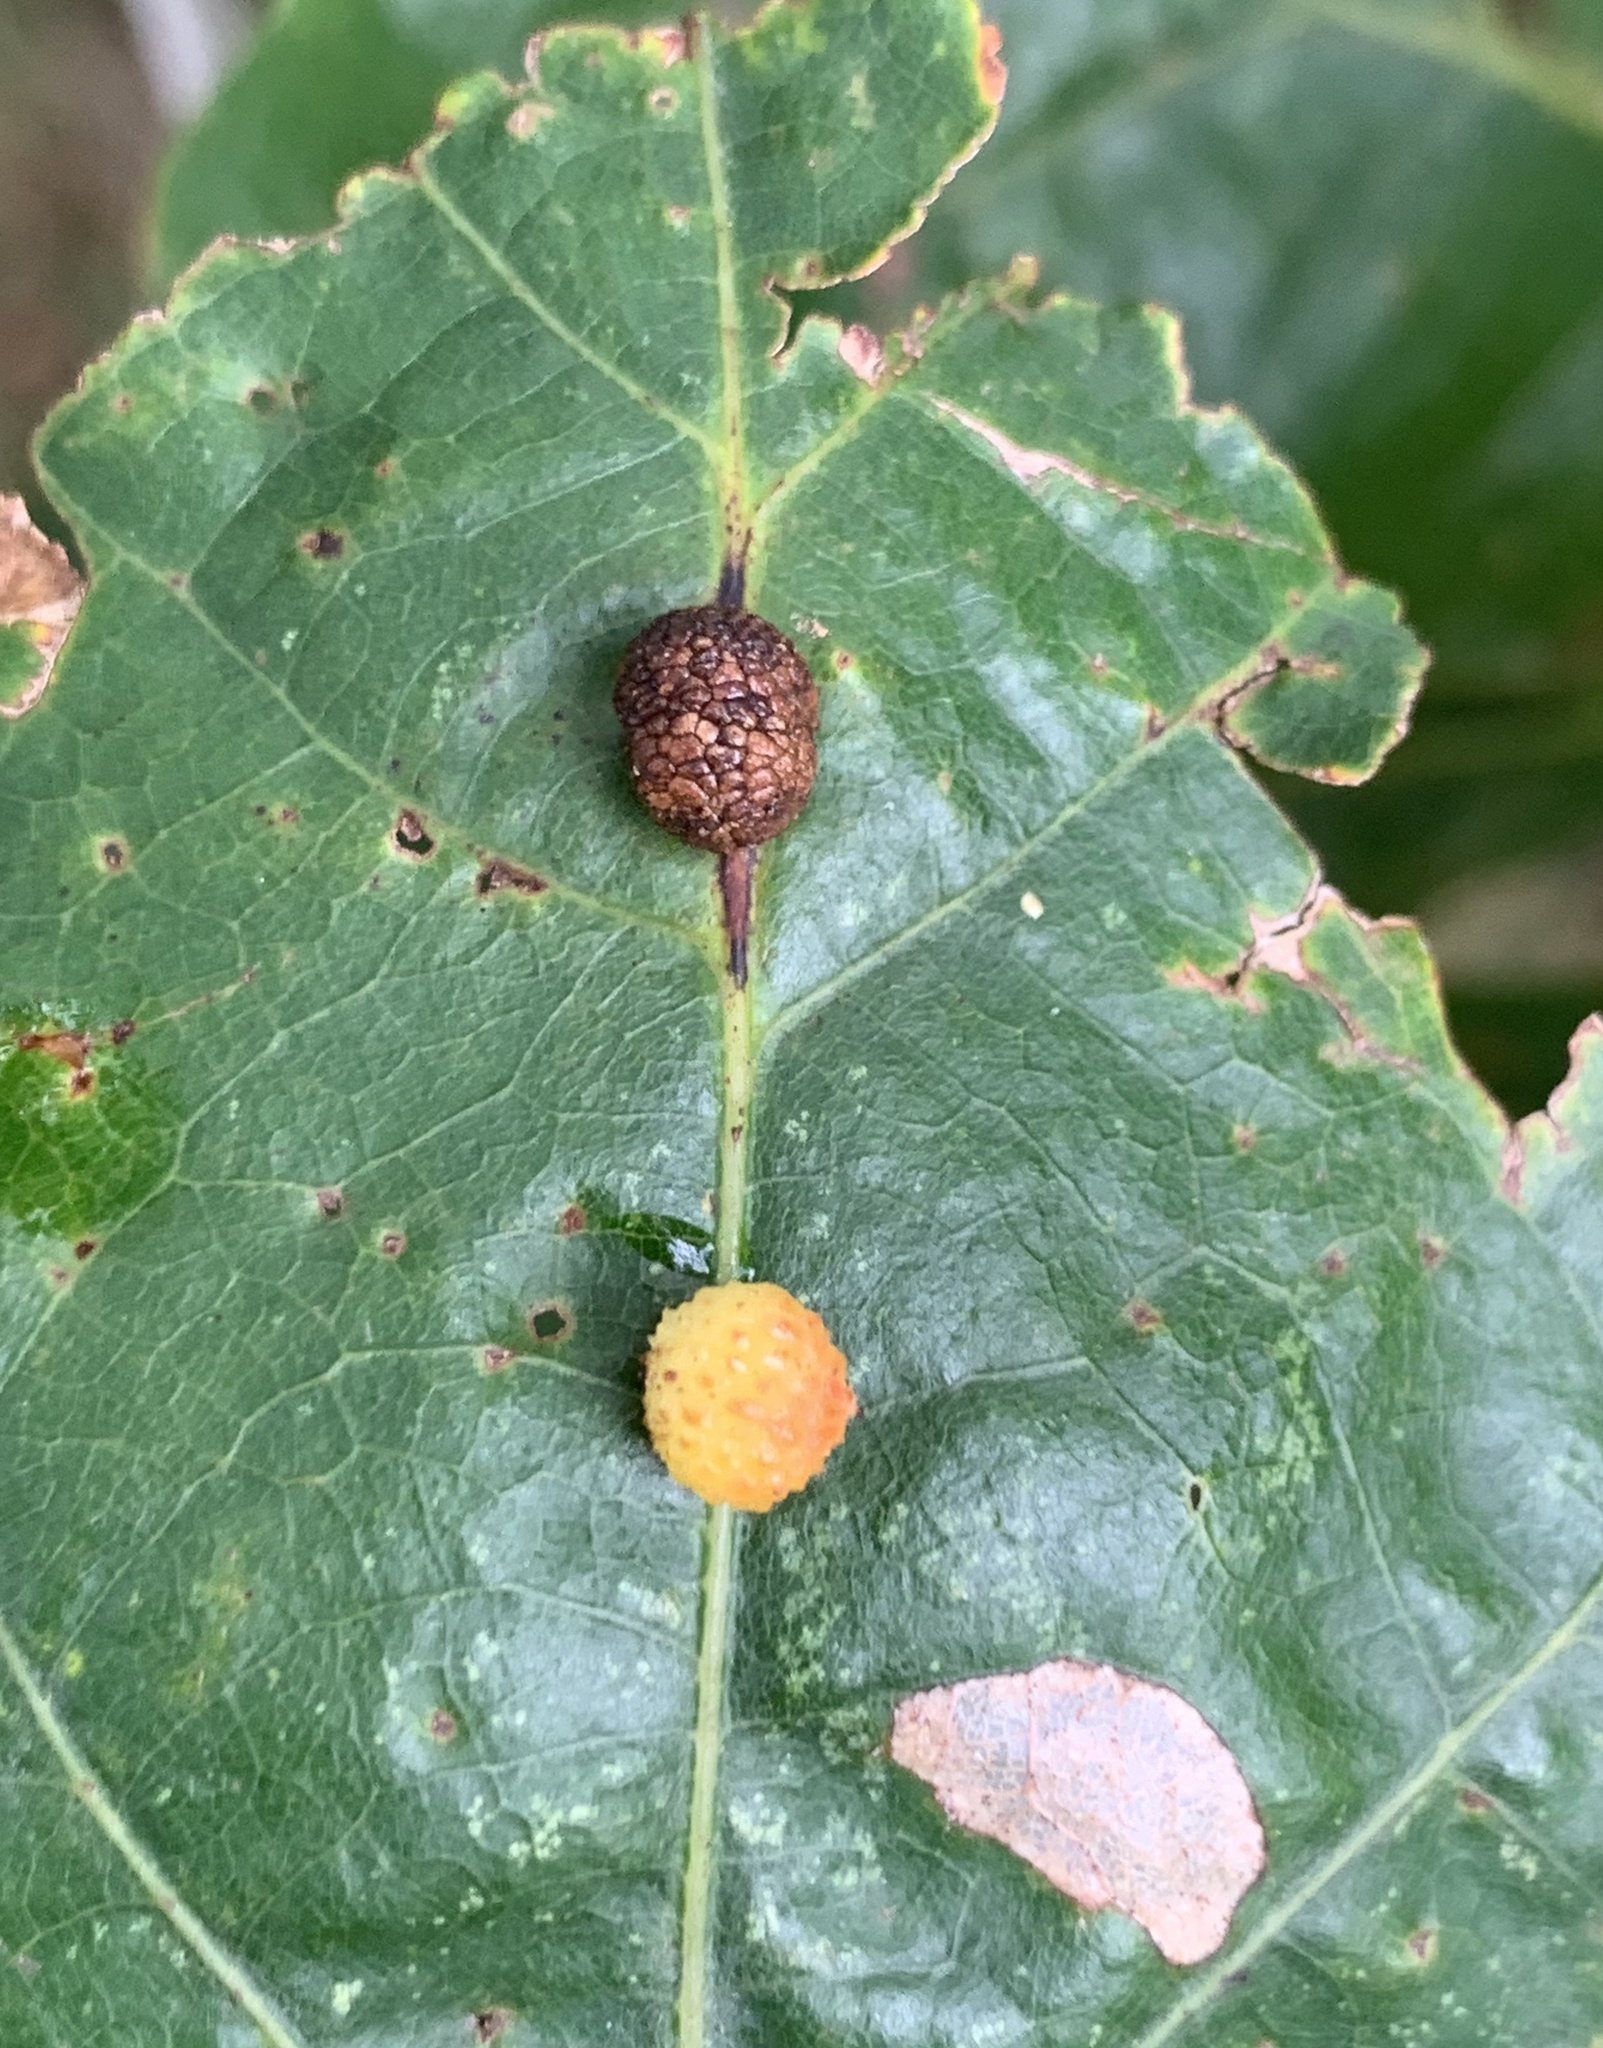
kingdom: Animalia
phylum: Arthropoda
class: Insecta
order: Hymenoptera
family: Cynipidae
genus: Acraspis
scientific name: Acraspis
